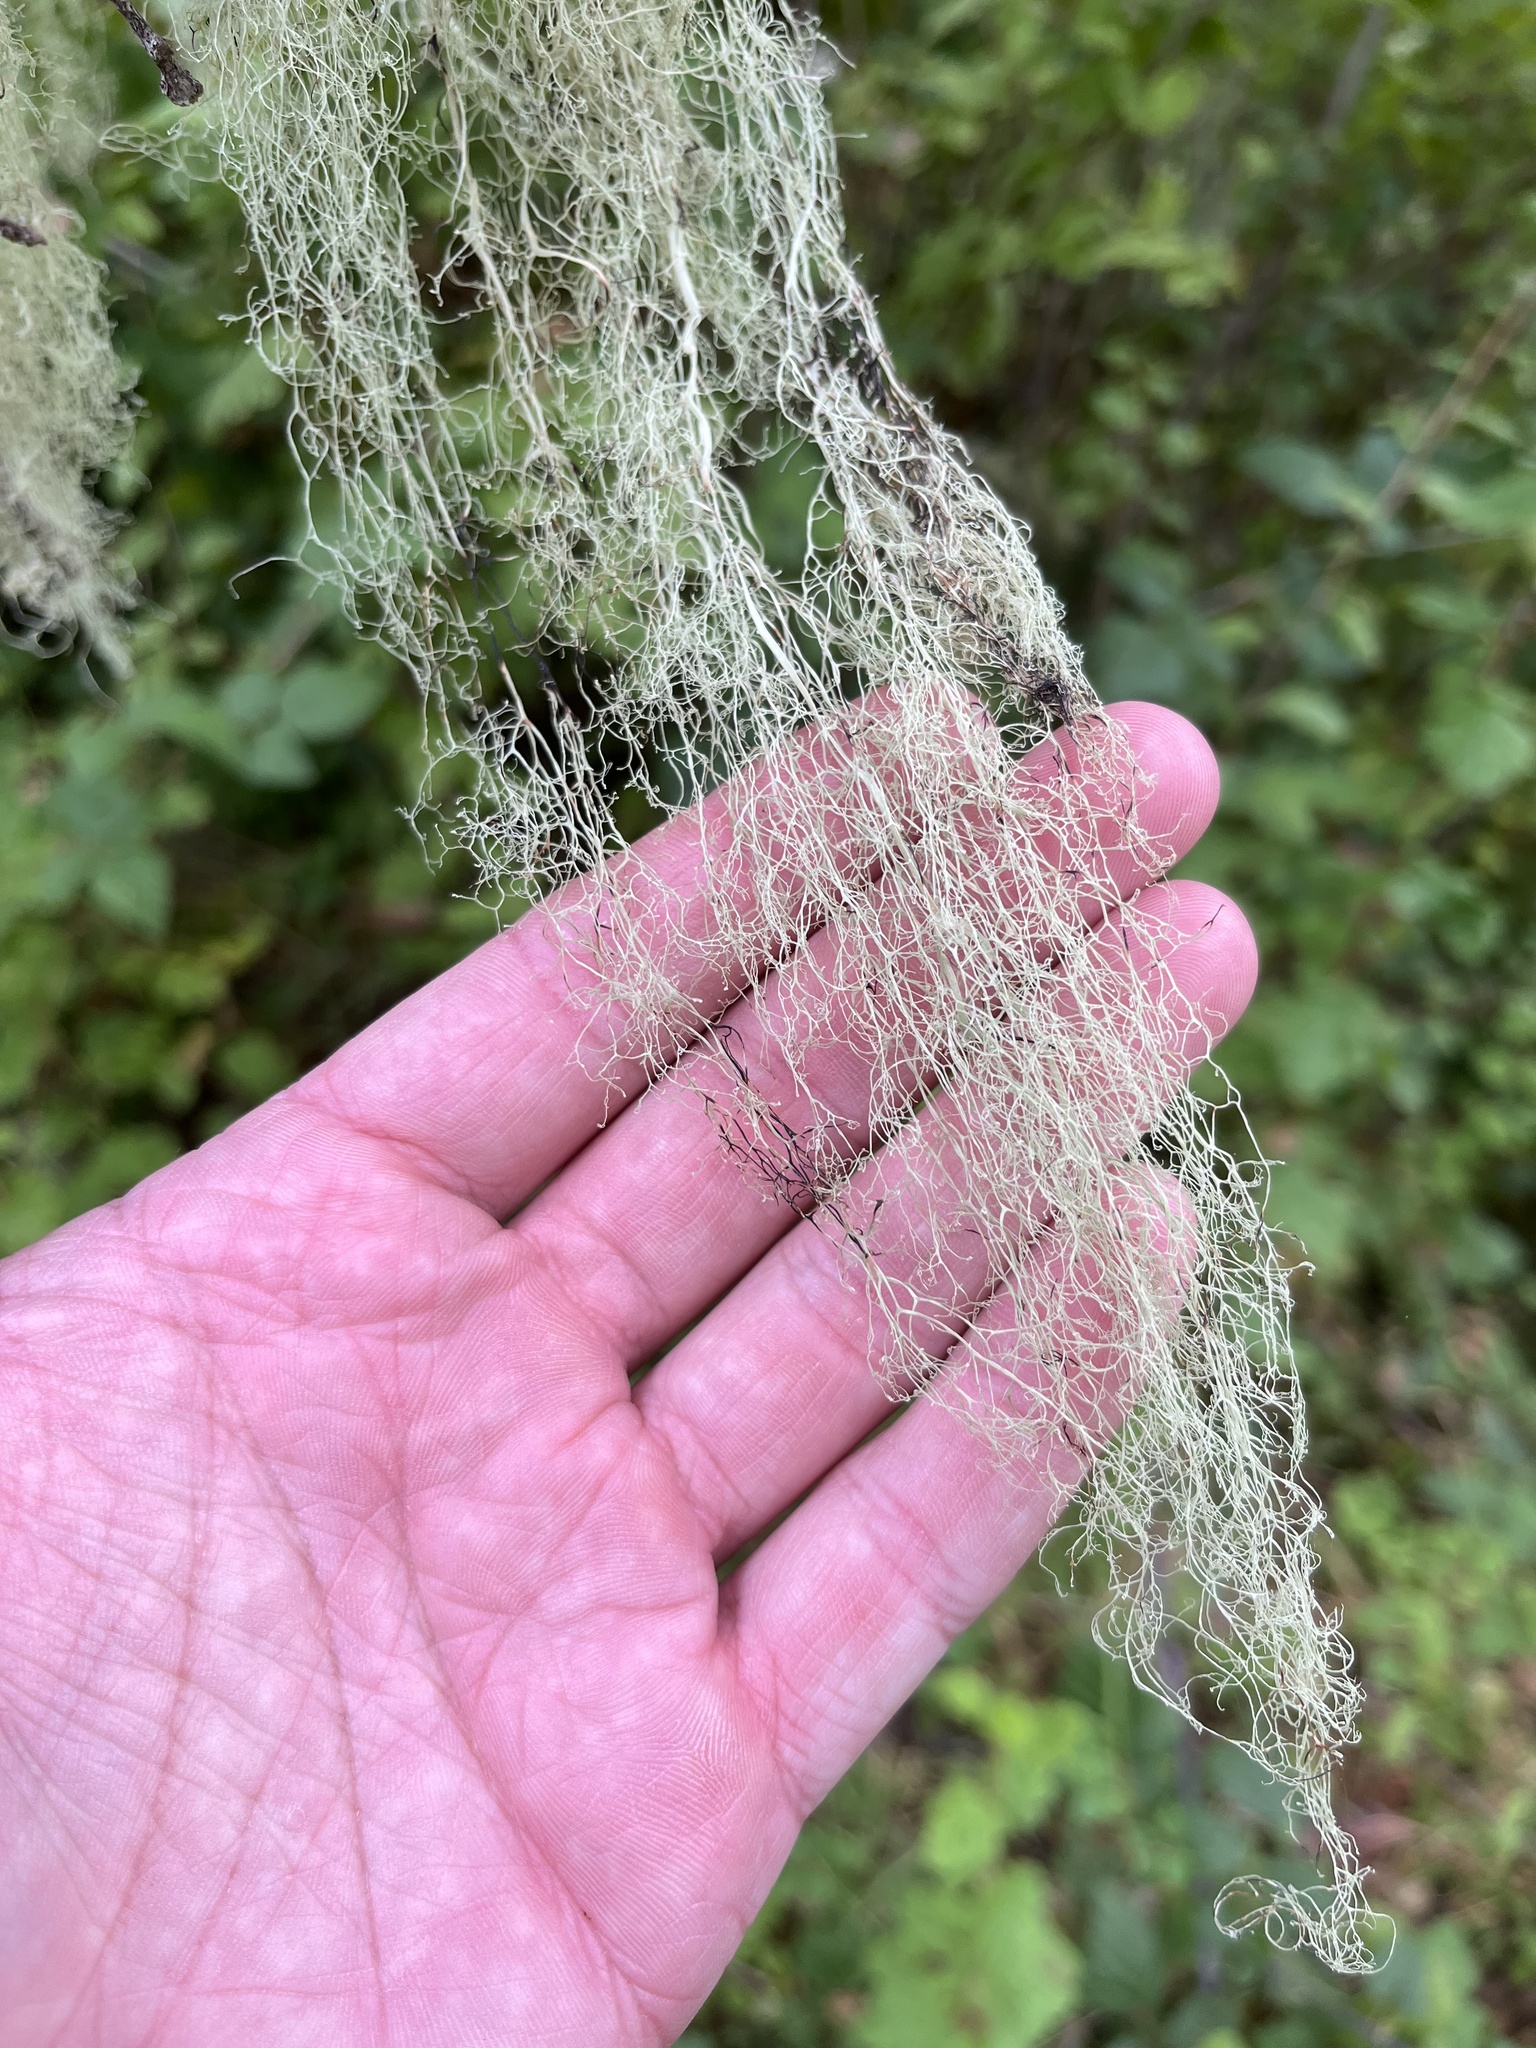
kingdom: Fungi
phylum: Ascomycota
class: Lecanoromycetes
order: Lecanorales
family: Ramalinaceae
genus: Ramalina
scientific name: Ramalina menziesii
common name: Lace lichen
